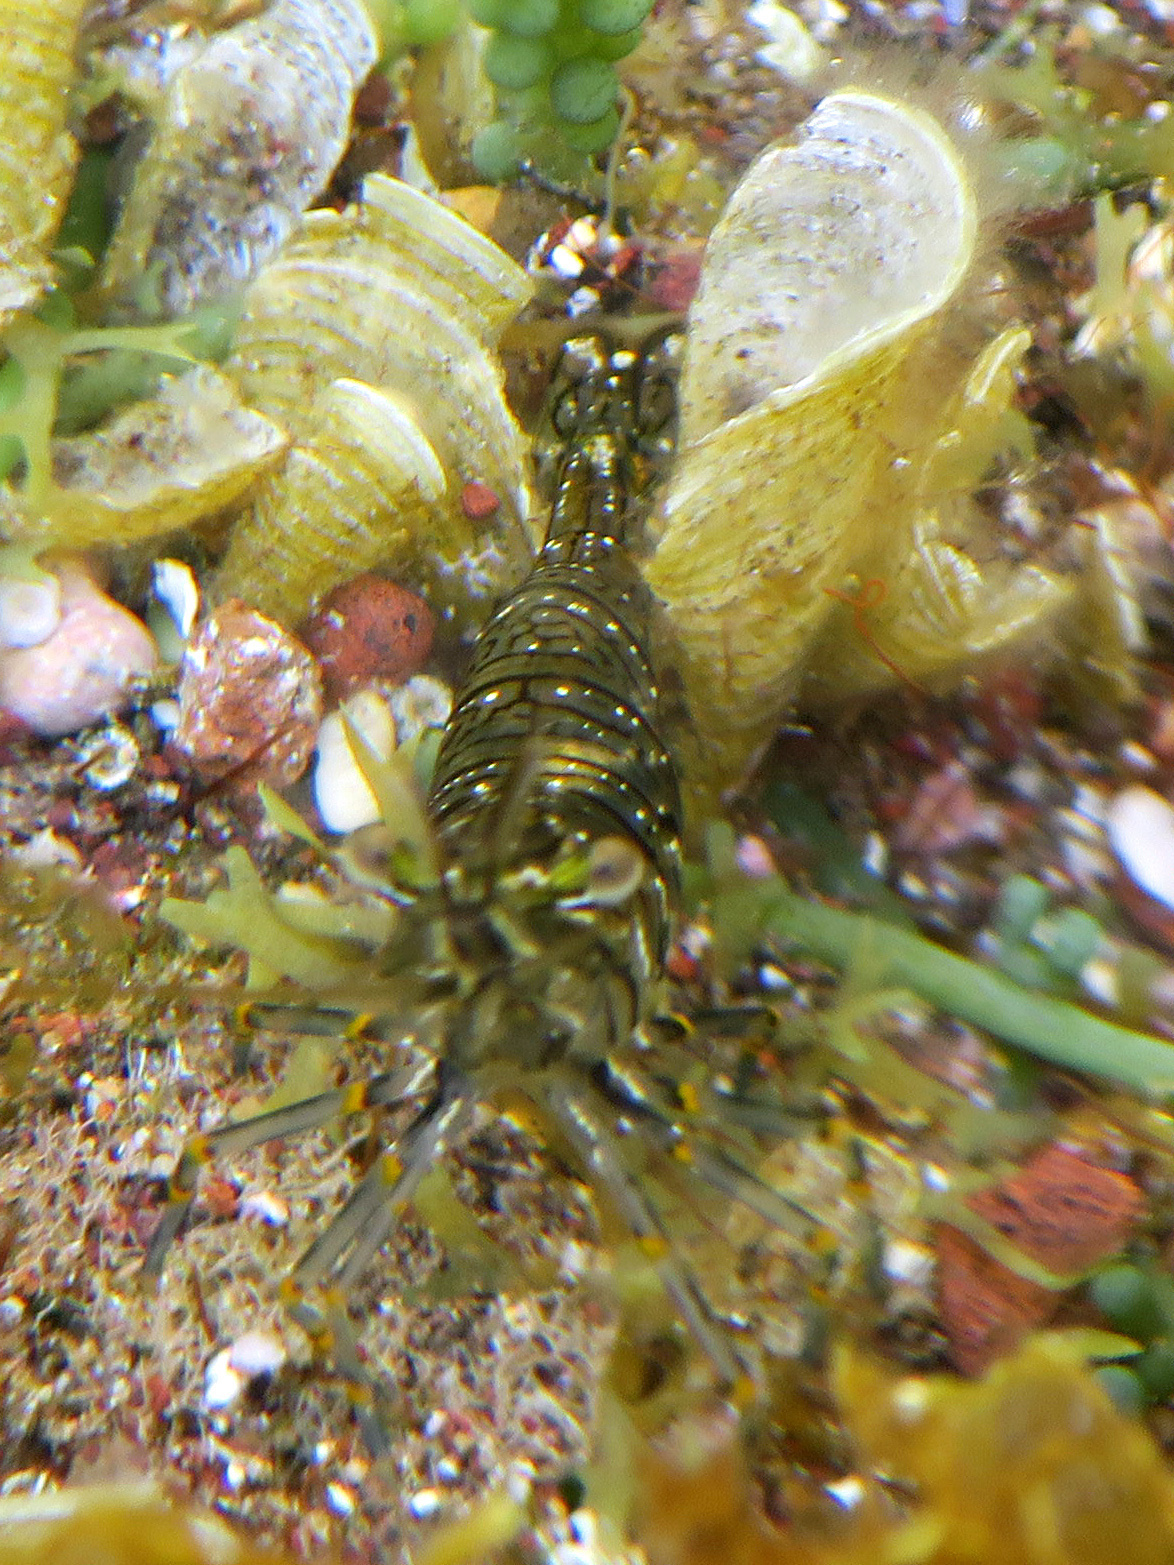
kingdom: Animalia
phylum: Arthropoda
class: Malacostraca
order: Decapoda
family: Palaemonidae
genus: Palaemon
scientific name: Palaemon elegans
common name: Grass prawm
